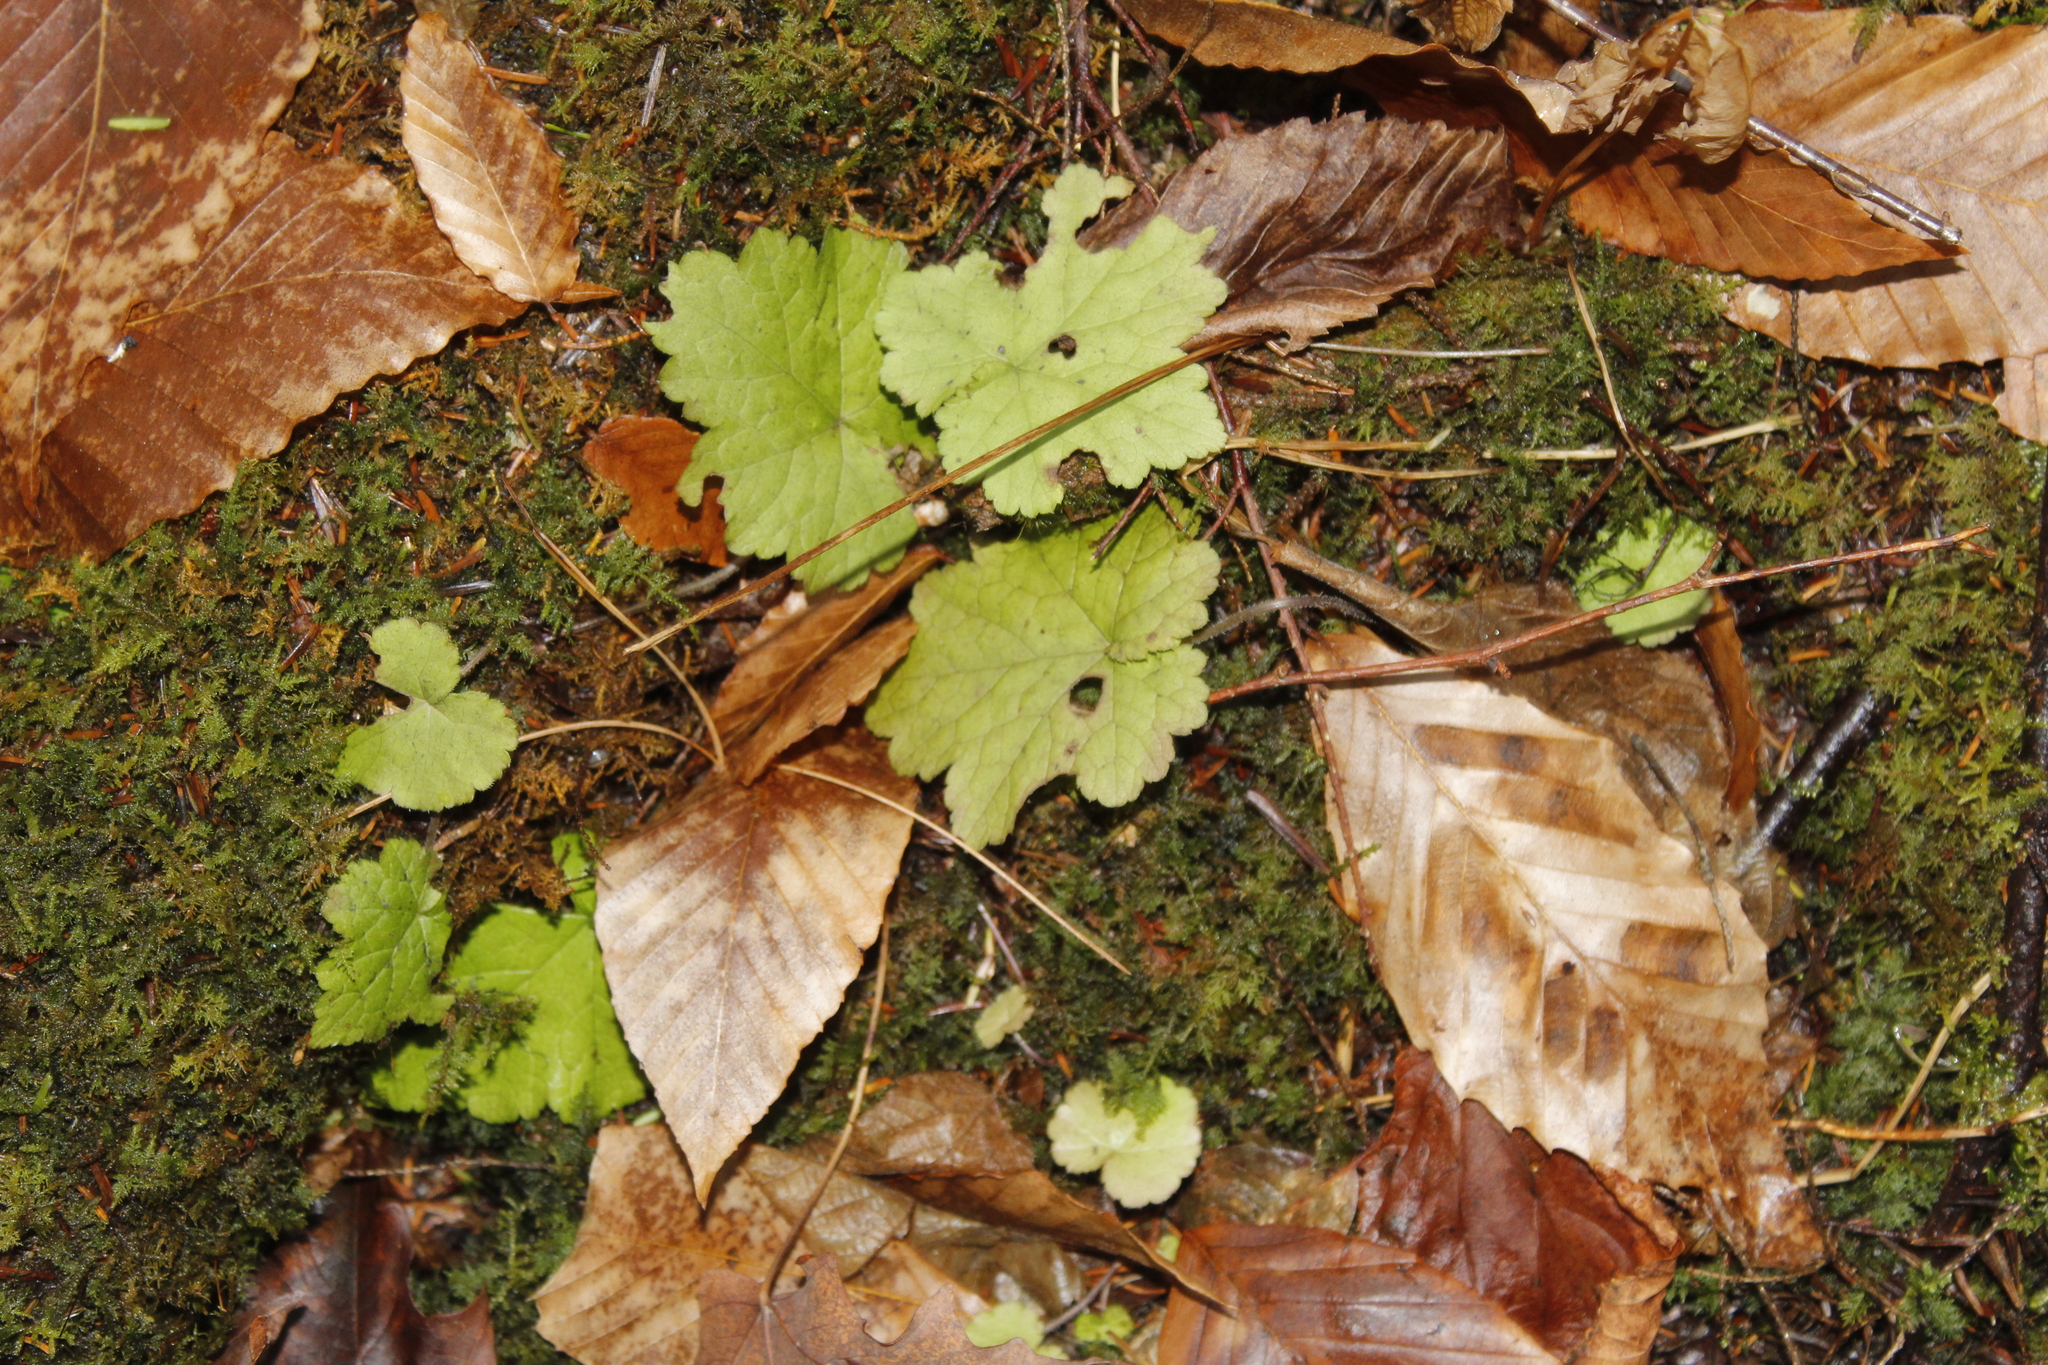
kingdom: Plantae
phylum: Tracheophyta
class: Magnoliopsida
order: Saxifragales
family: Saxifragaceae
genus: Tiarella
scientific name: Tiarella stolonifera
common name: Stoloniferous foamflower
